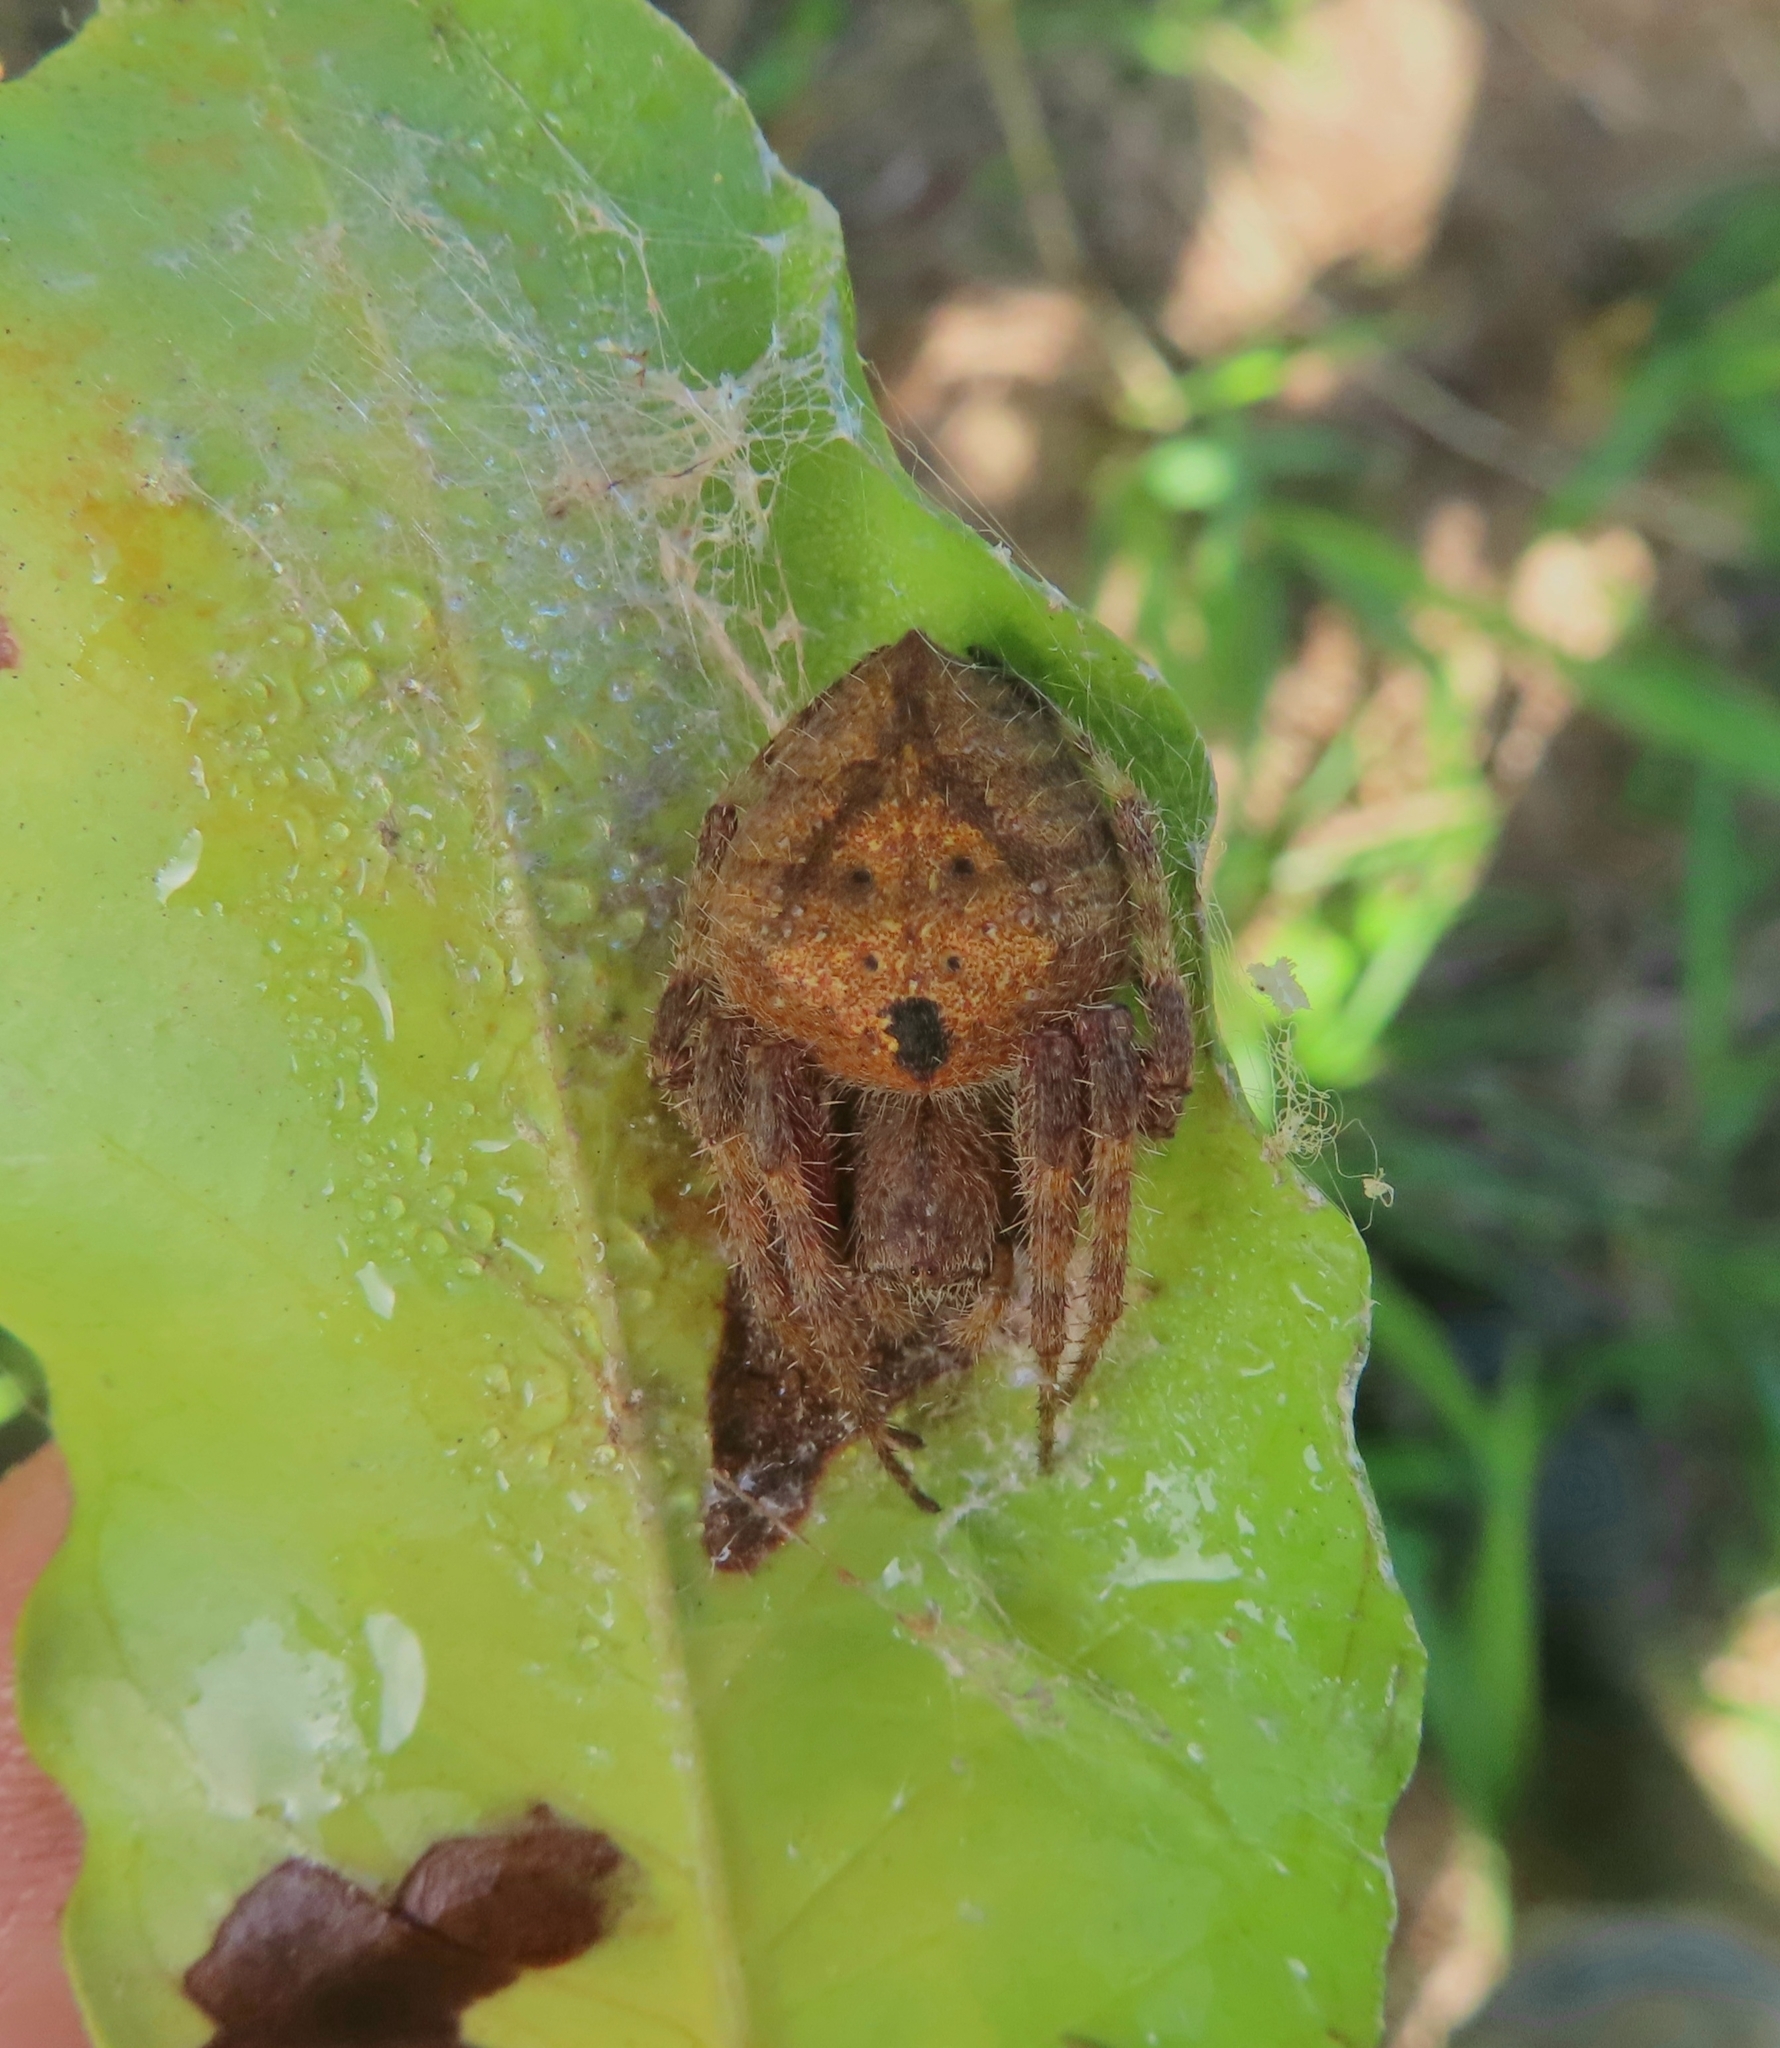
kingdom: Animalia
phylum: Arthropoda
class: Arachnida
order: Araneae
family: Araneidae
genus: Eriophora
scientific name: Eriophora edax
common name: Orb weavers
